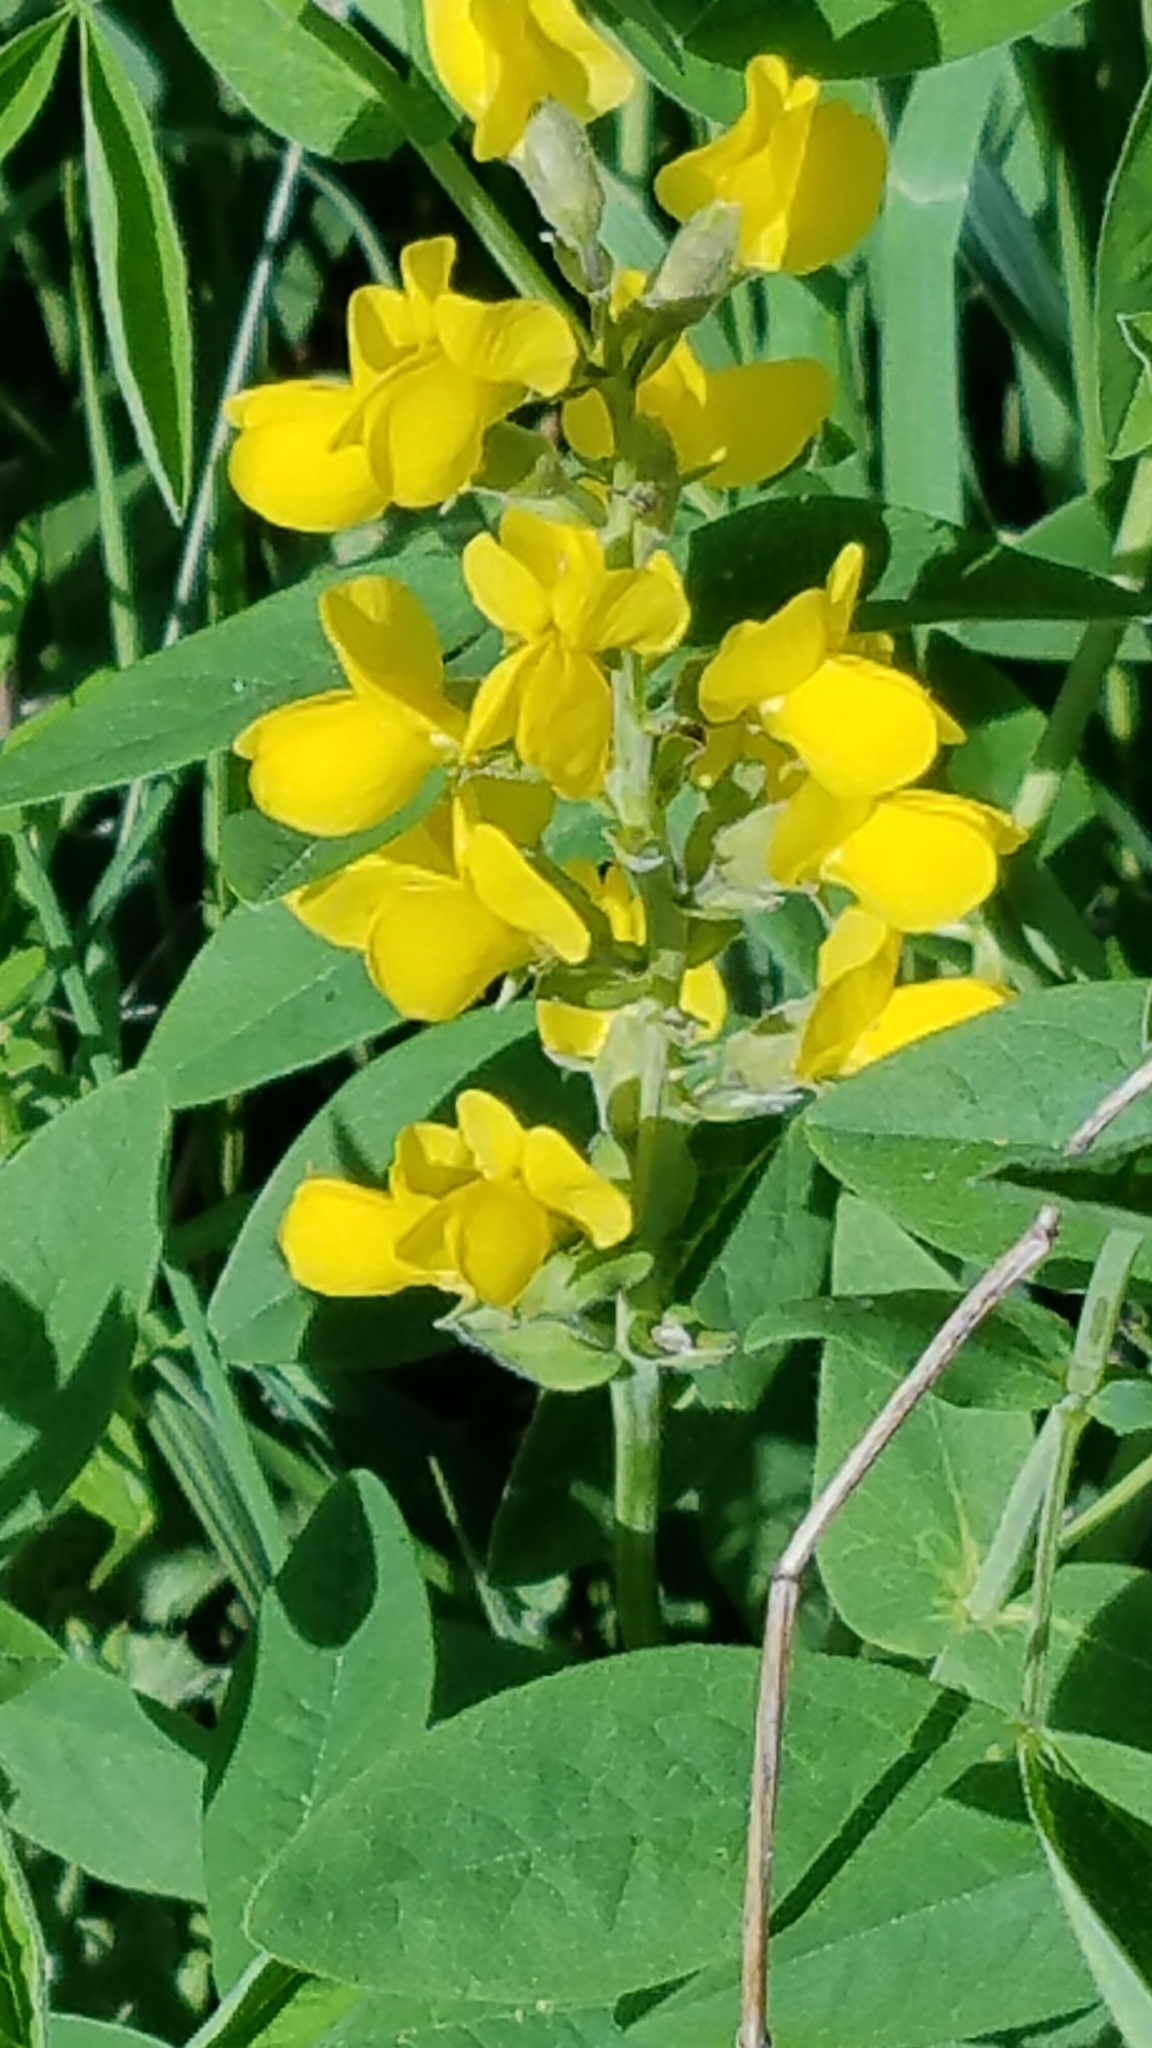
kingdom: Plantae
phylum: Tracheophyta
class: Magnoliopsida
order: Fabales
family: Fabaceae
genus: Thermopsis
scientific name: Thermopsis montana
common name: False lupin
